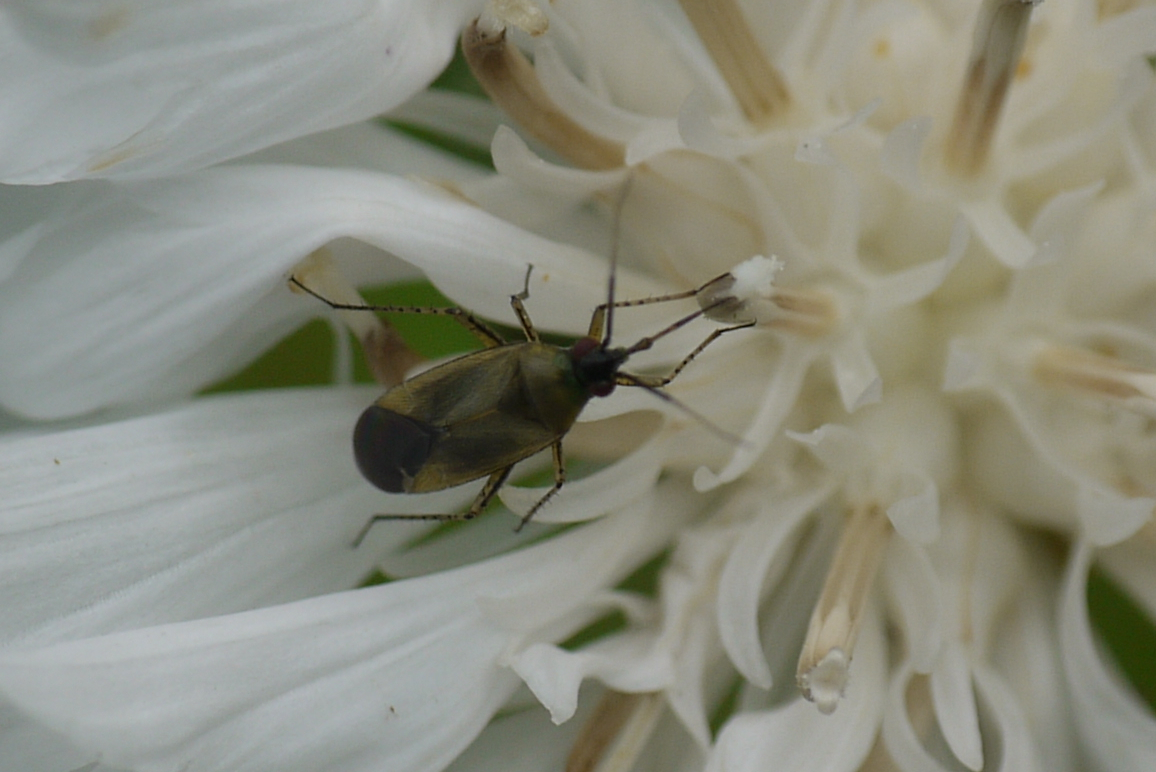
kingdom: Animalia
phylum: Arthropoda
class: Insecta
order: Hemiptera
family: Miridae
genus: Plagiognathus
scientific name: Plagiognathus arbustorum
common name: Plant bug
